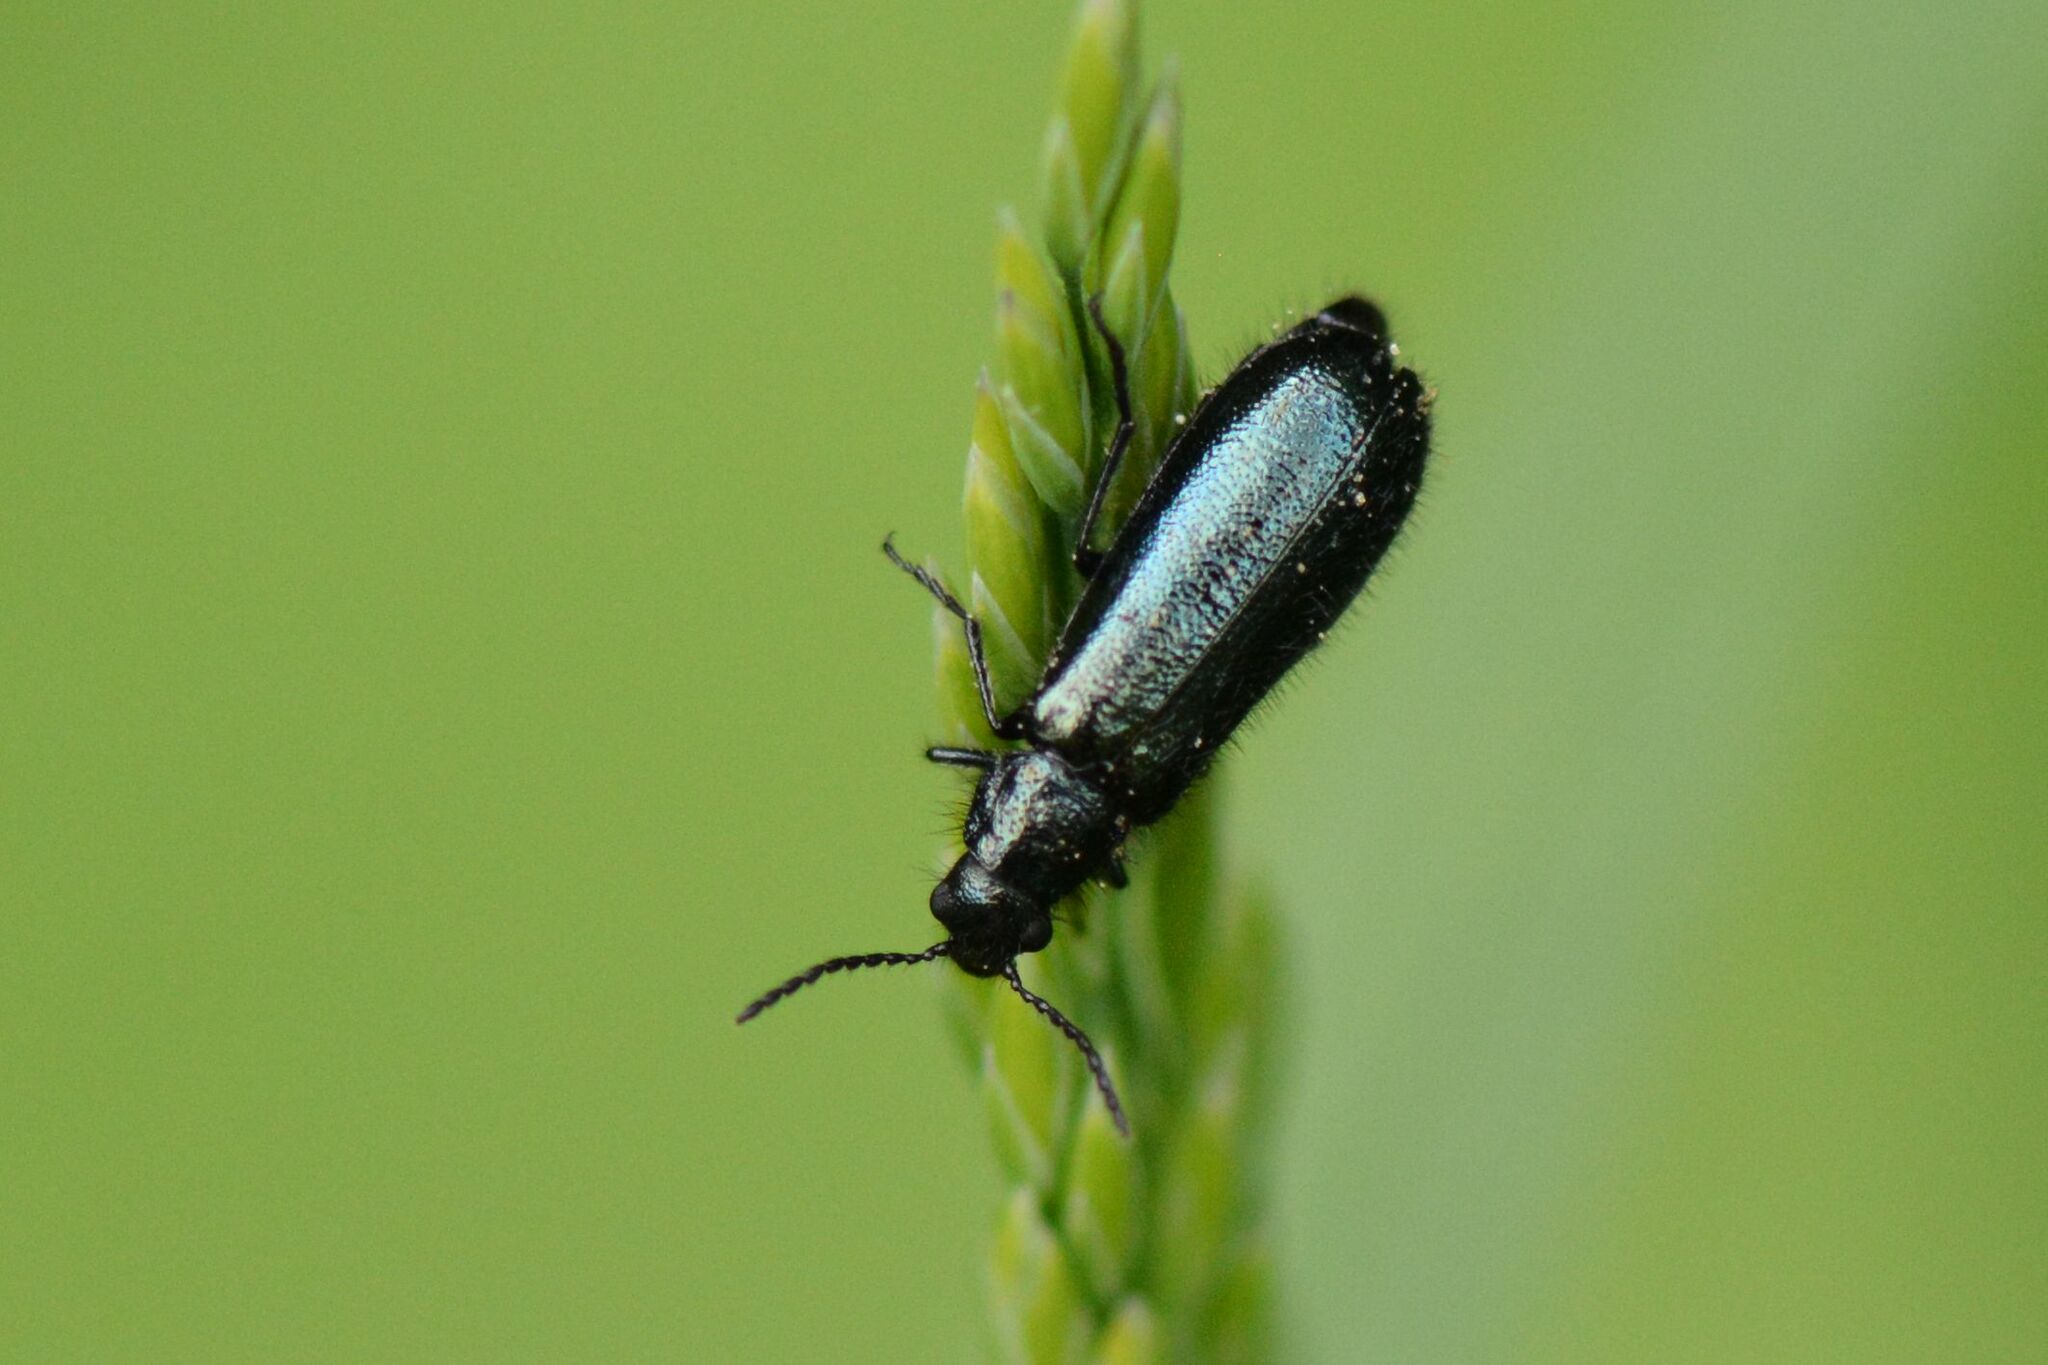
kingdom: Animalia
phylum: Arthropoda
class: Insecta
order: Coleoptera
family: Melyridae
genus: Dasytes
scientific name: Dasytes caeruleus
